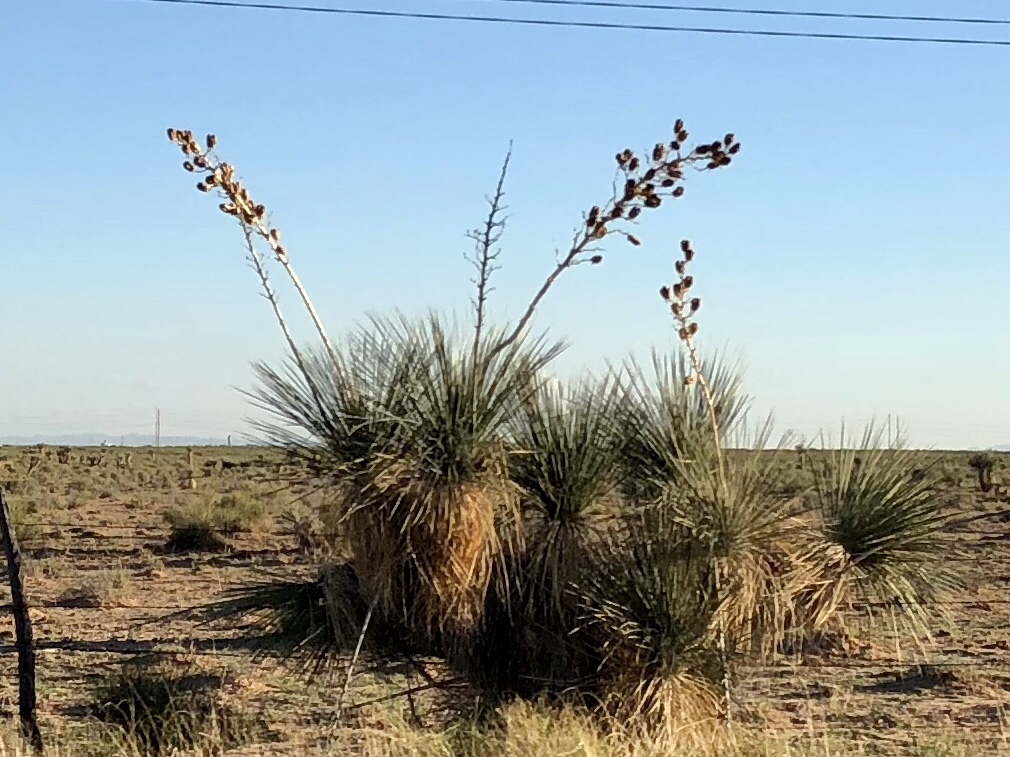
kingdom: Plantae
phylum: Tracheophyta
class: Liliopsida
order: Asparagales
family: Asparagaceae
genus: Yucca
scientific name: Yucca elata
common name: Palmella
